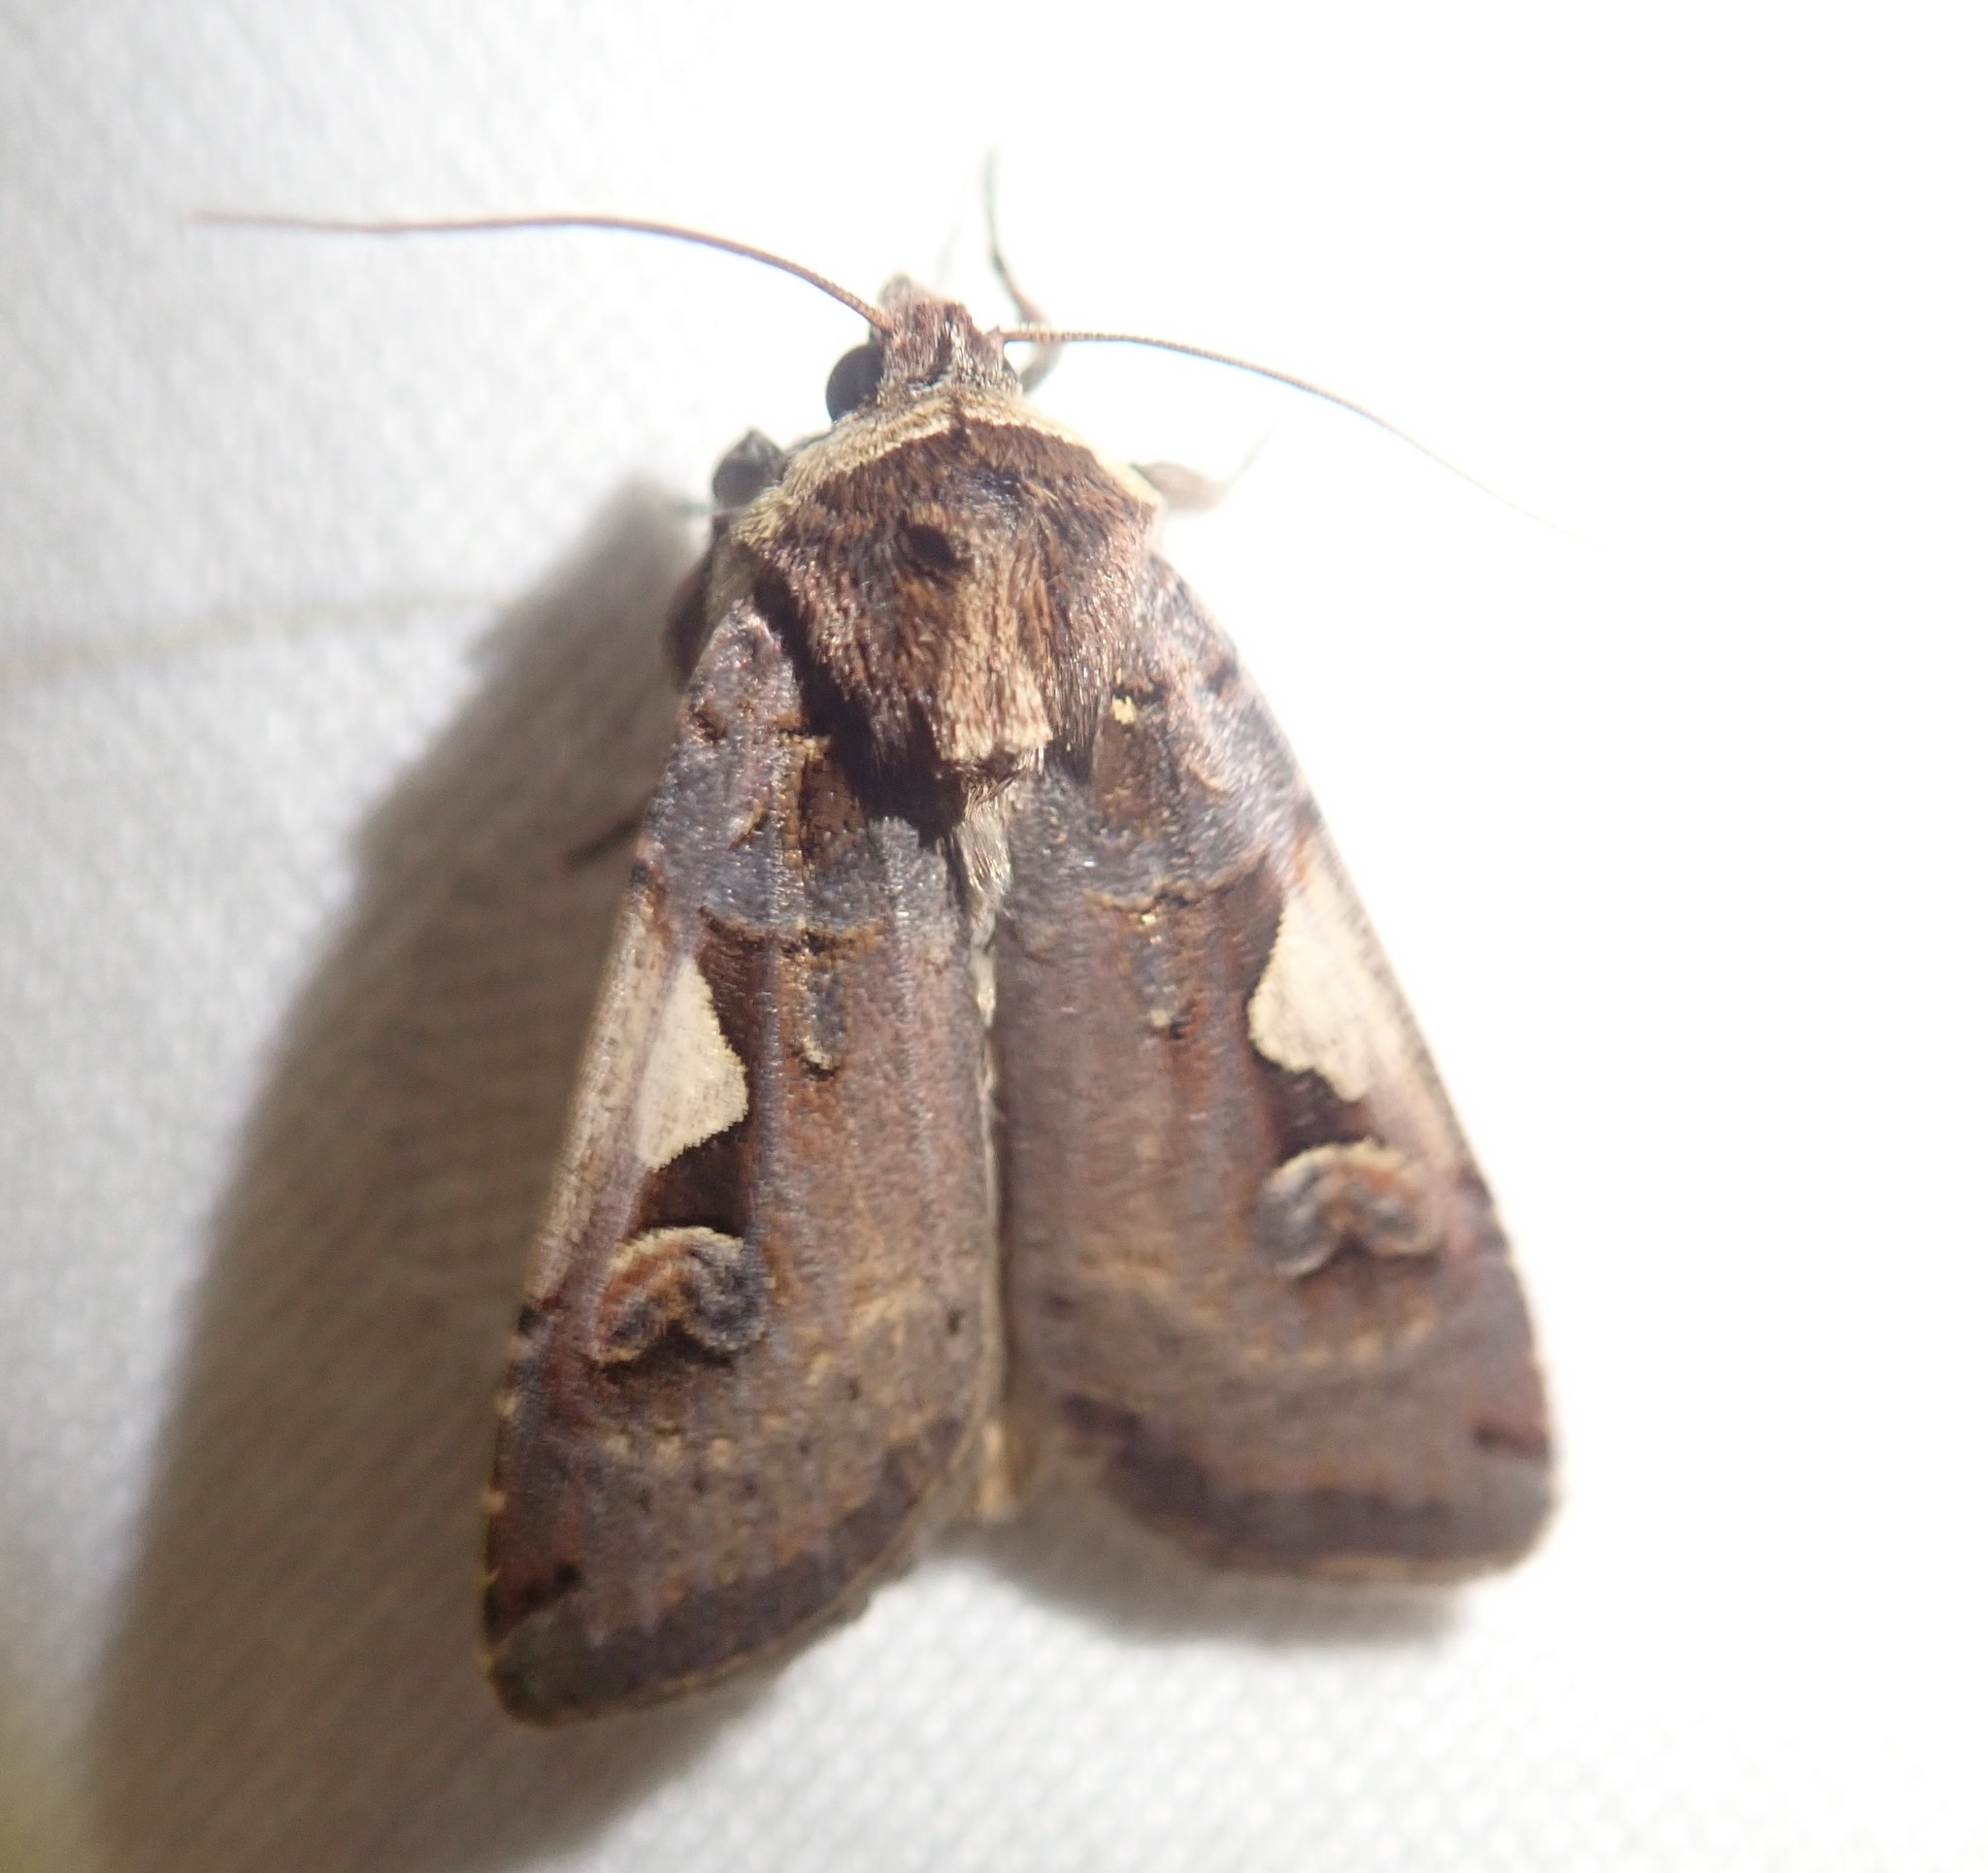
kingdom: Animalia
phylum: Arthropoda
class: Insecta
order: Lepidoptera
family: Noctuidae
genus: Xestia
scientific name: Xestia c-nigrum
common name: Setaceous hebrew character
